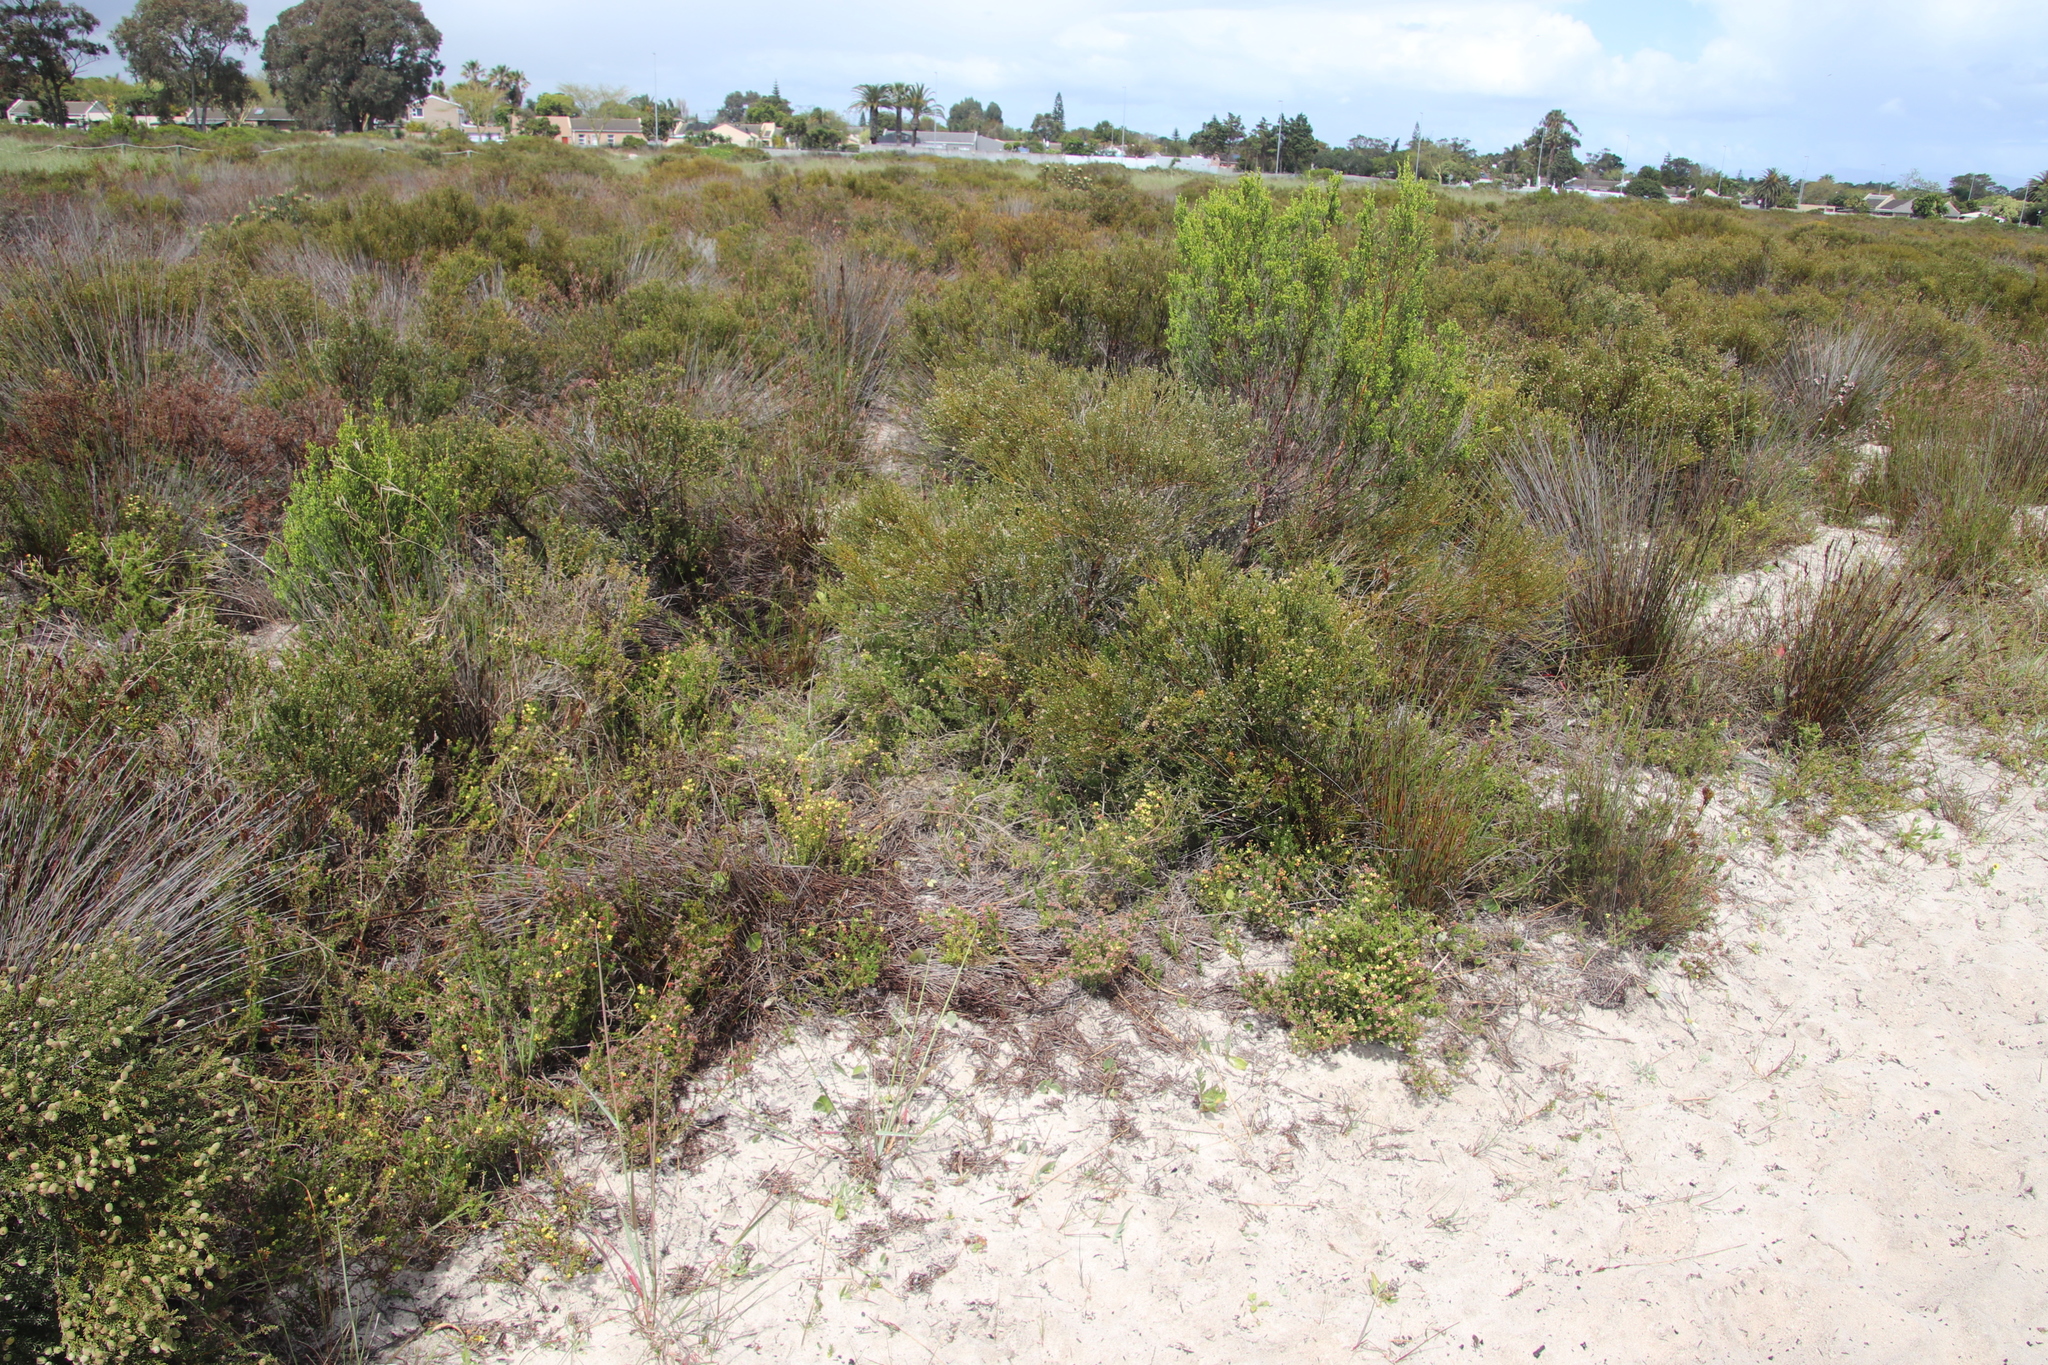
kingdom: Plantae
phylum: Tracheophyta
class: Magnoliopsida
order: Fabales
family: Fabaceae
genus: Aspalathus
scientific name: Aspalathus albens
